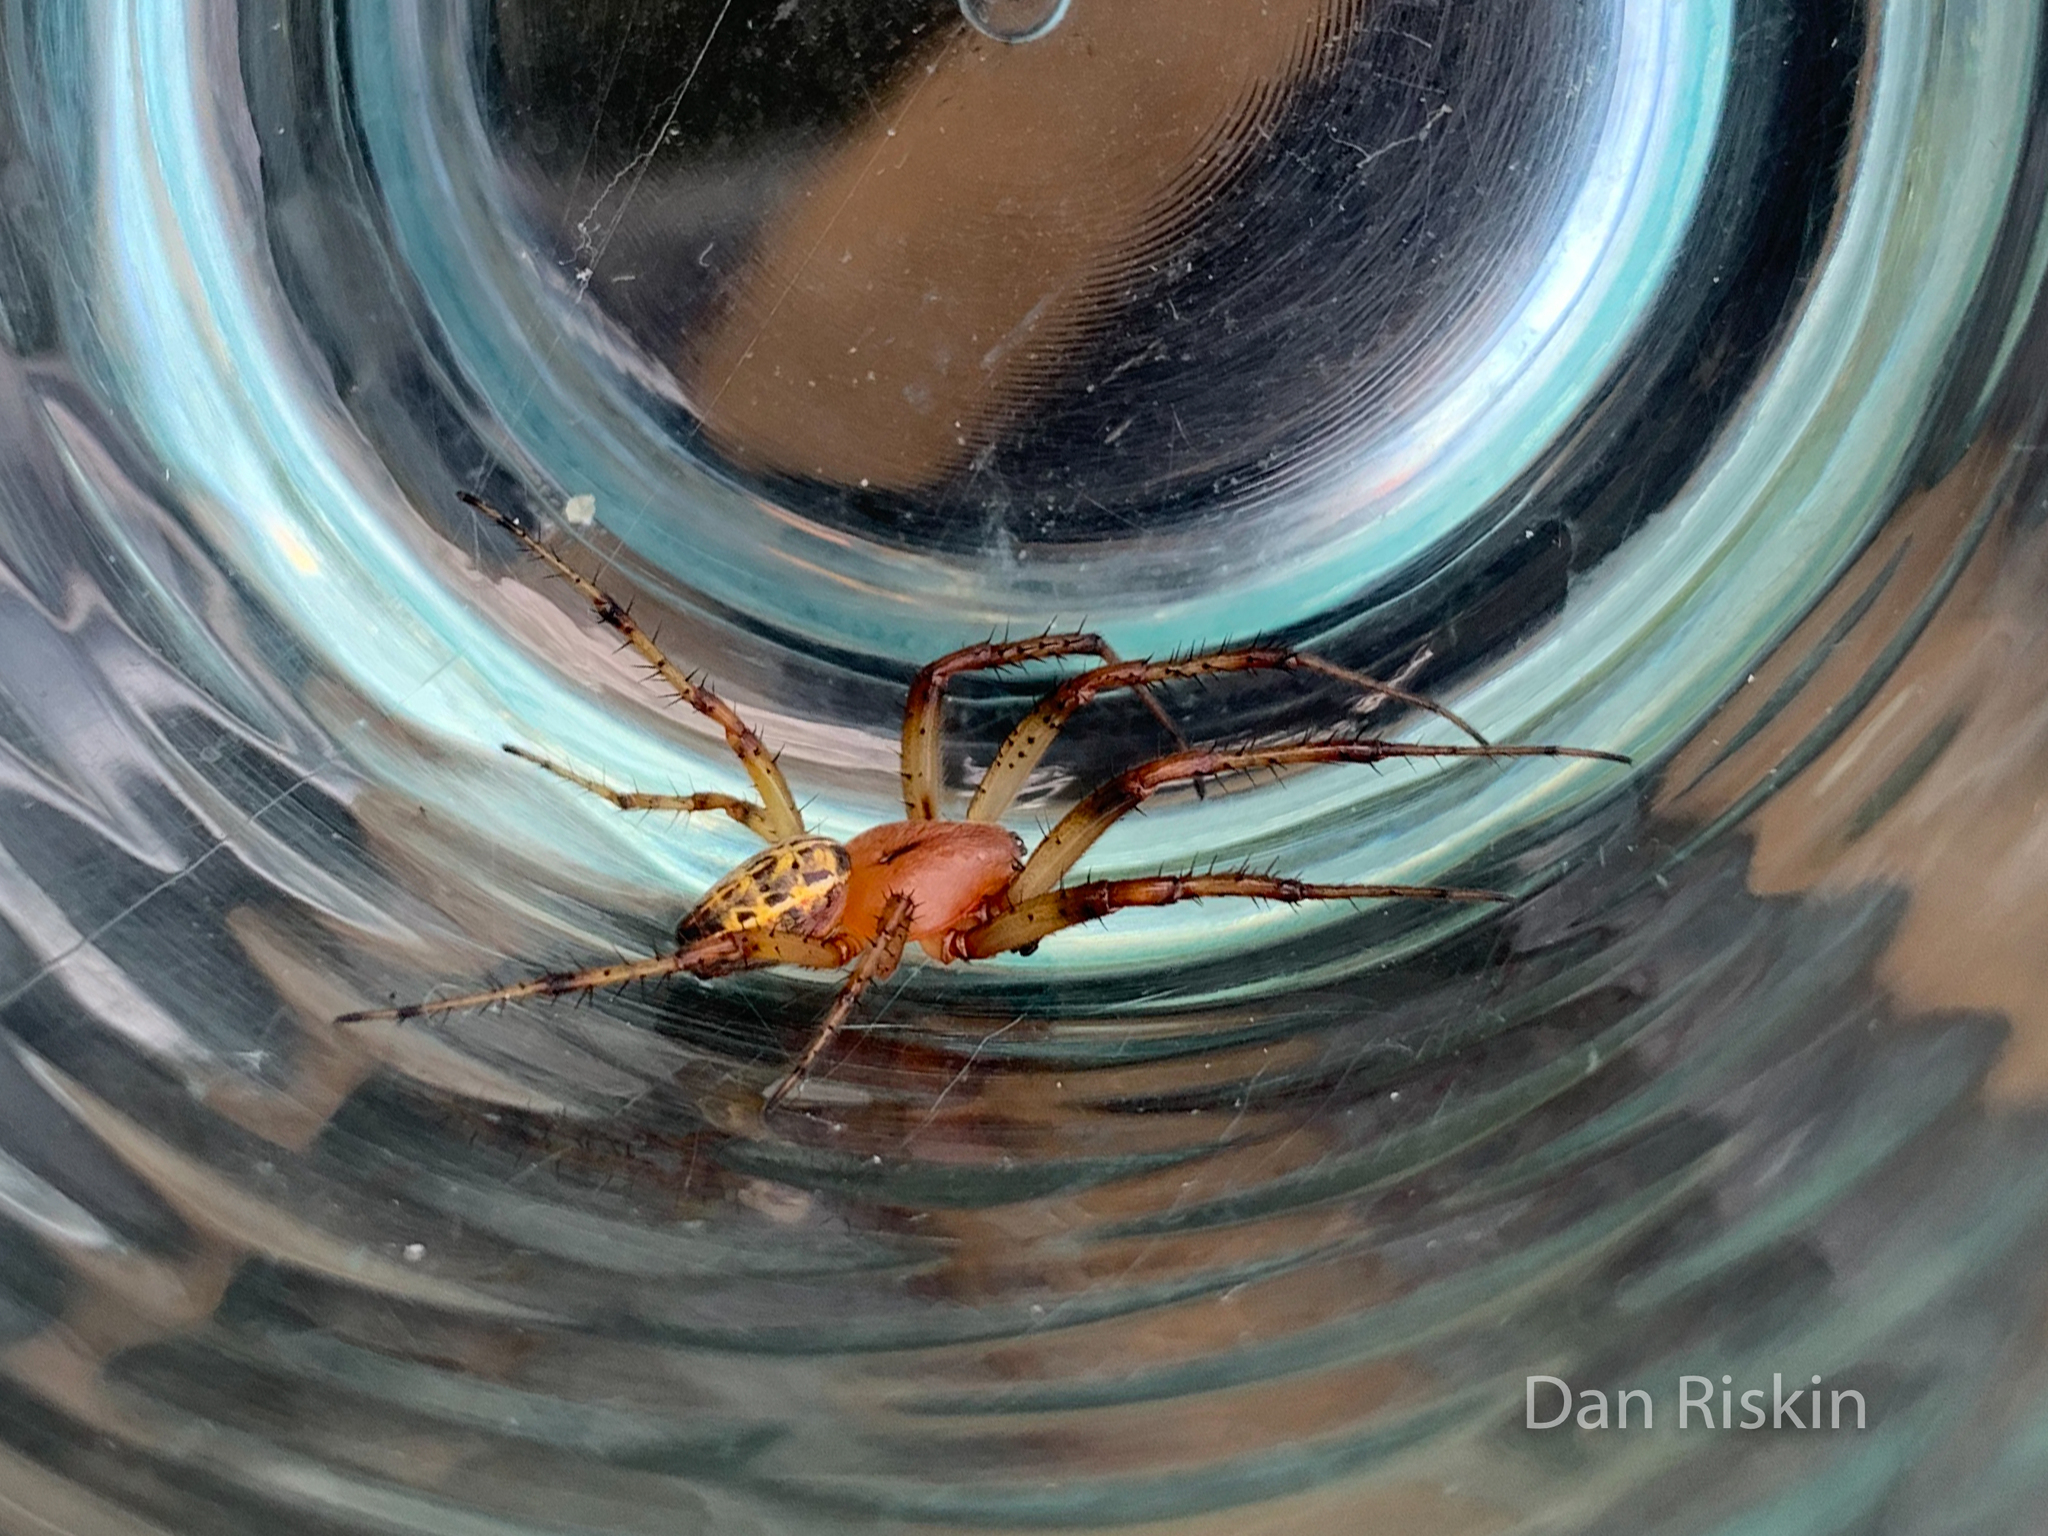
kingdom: Animalia
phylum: Arthropoda
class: Arachnida
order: Araneae
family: Araneidae
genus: Alpaida
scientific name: Alpaida veniliae
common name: Orb weavers
